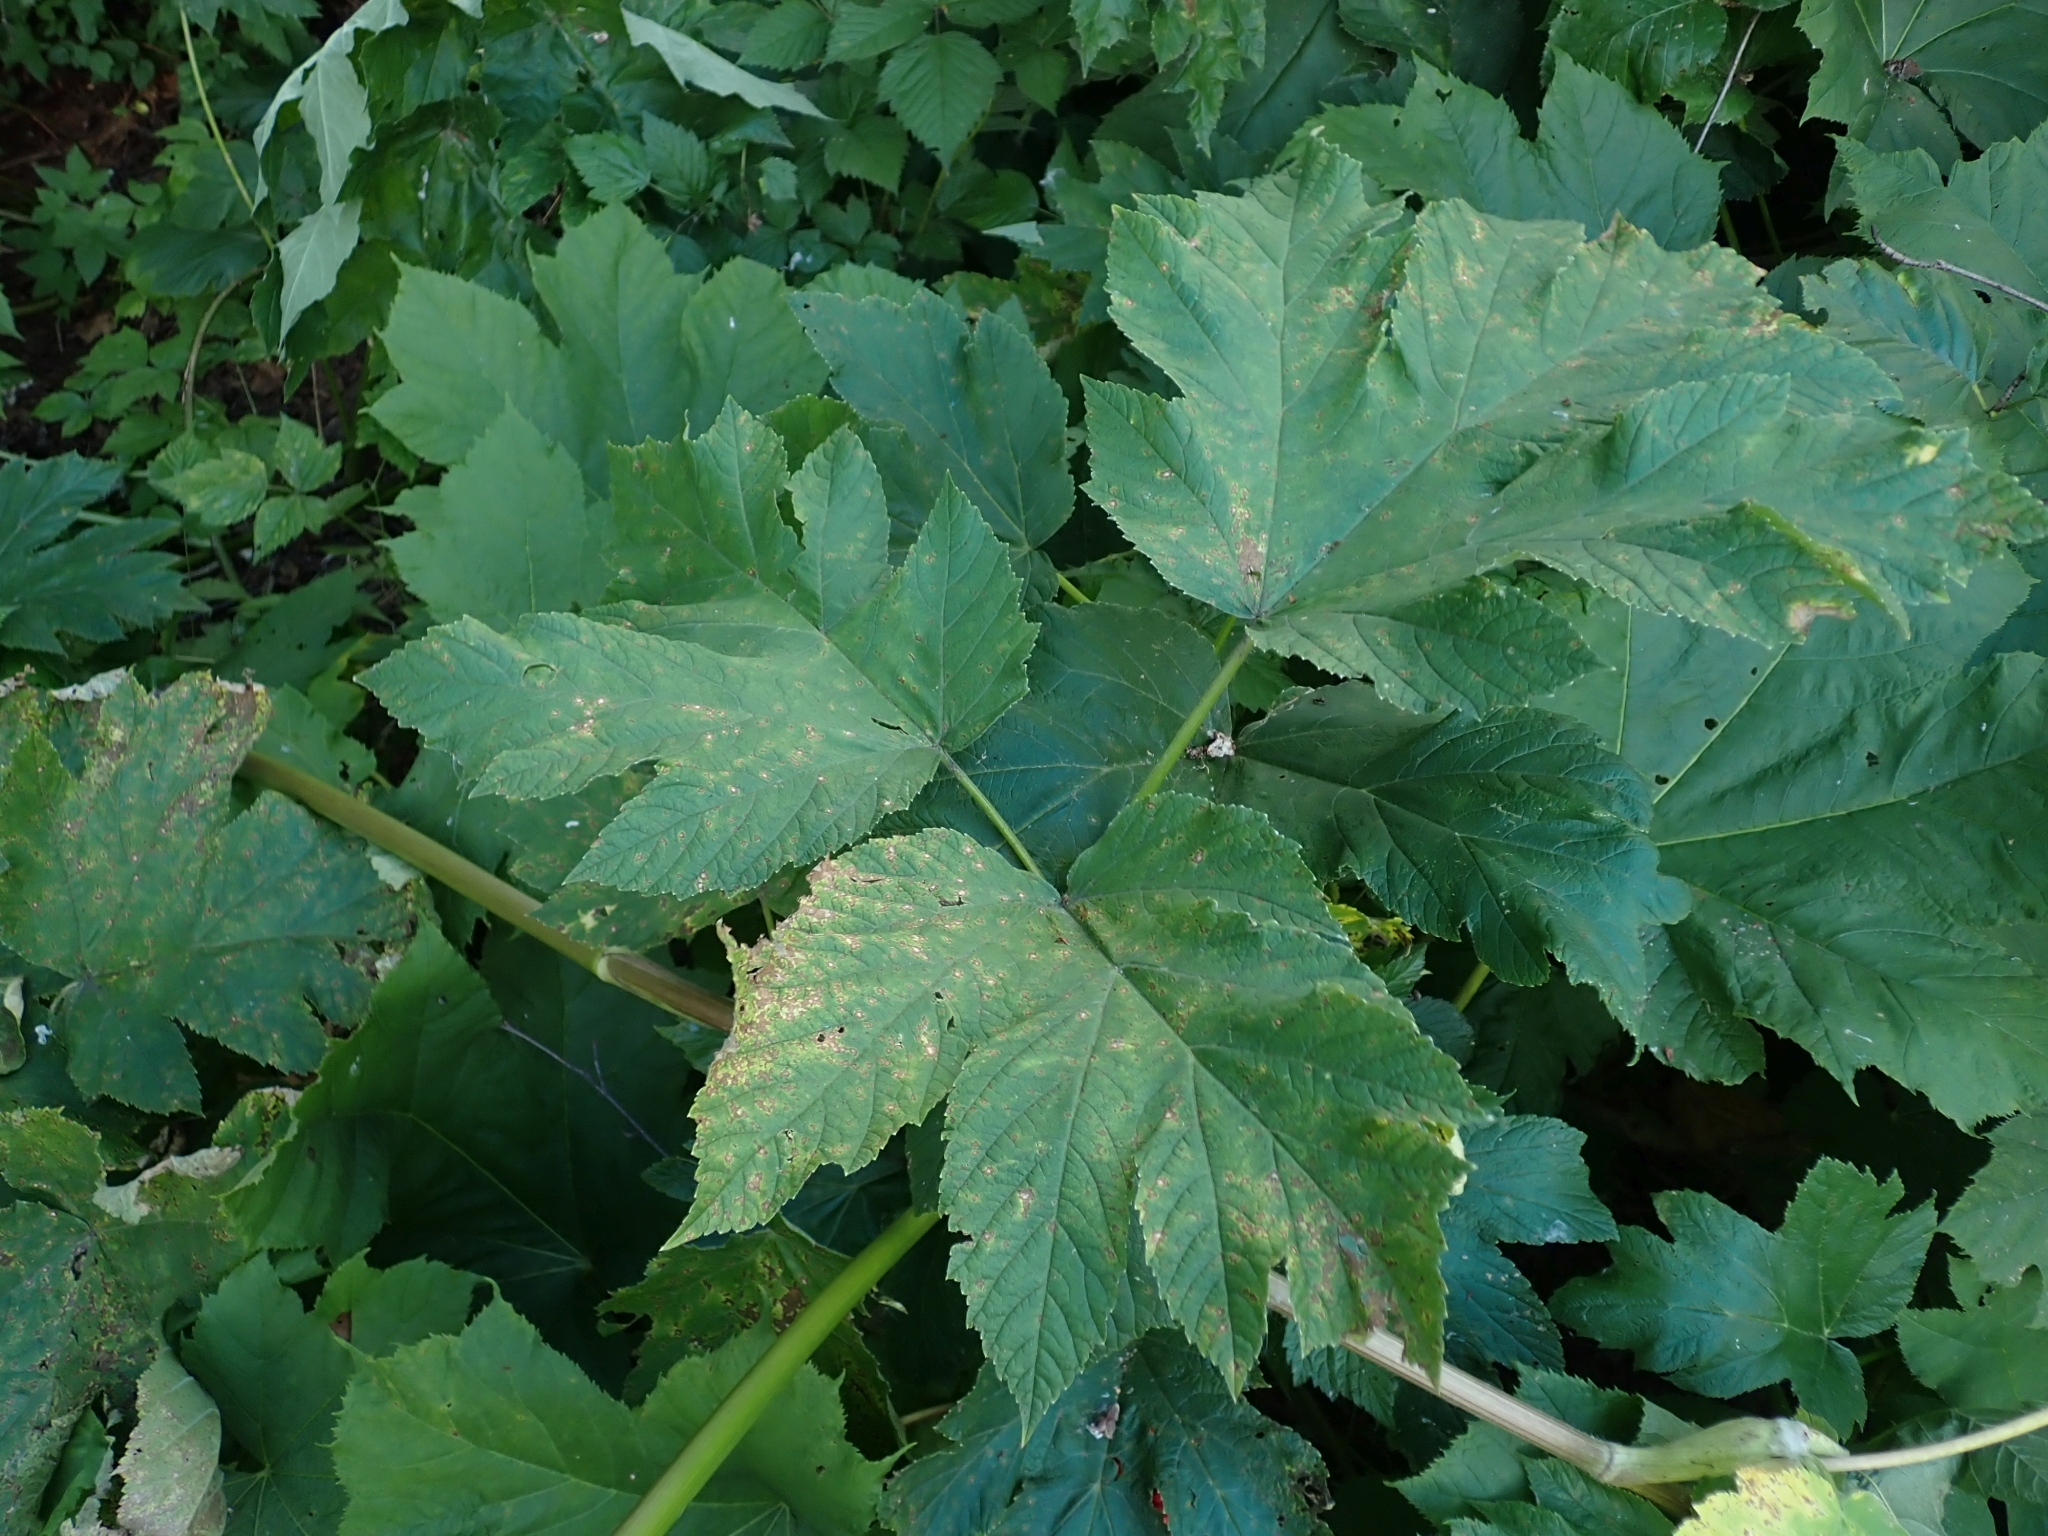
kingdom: Plantae
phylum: Tracheophyta
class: Magnoliopsida
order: Apiales
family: Apiaceae
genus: Heracleum
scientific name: Heracleum maximum
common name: American cow parsnip
